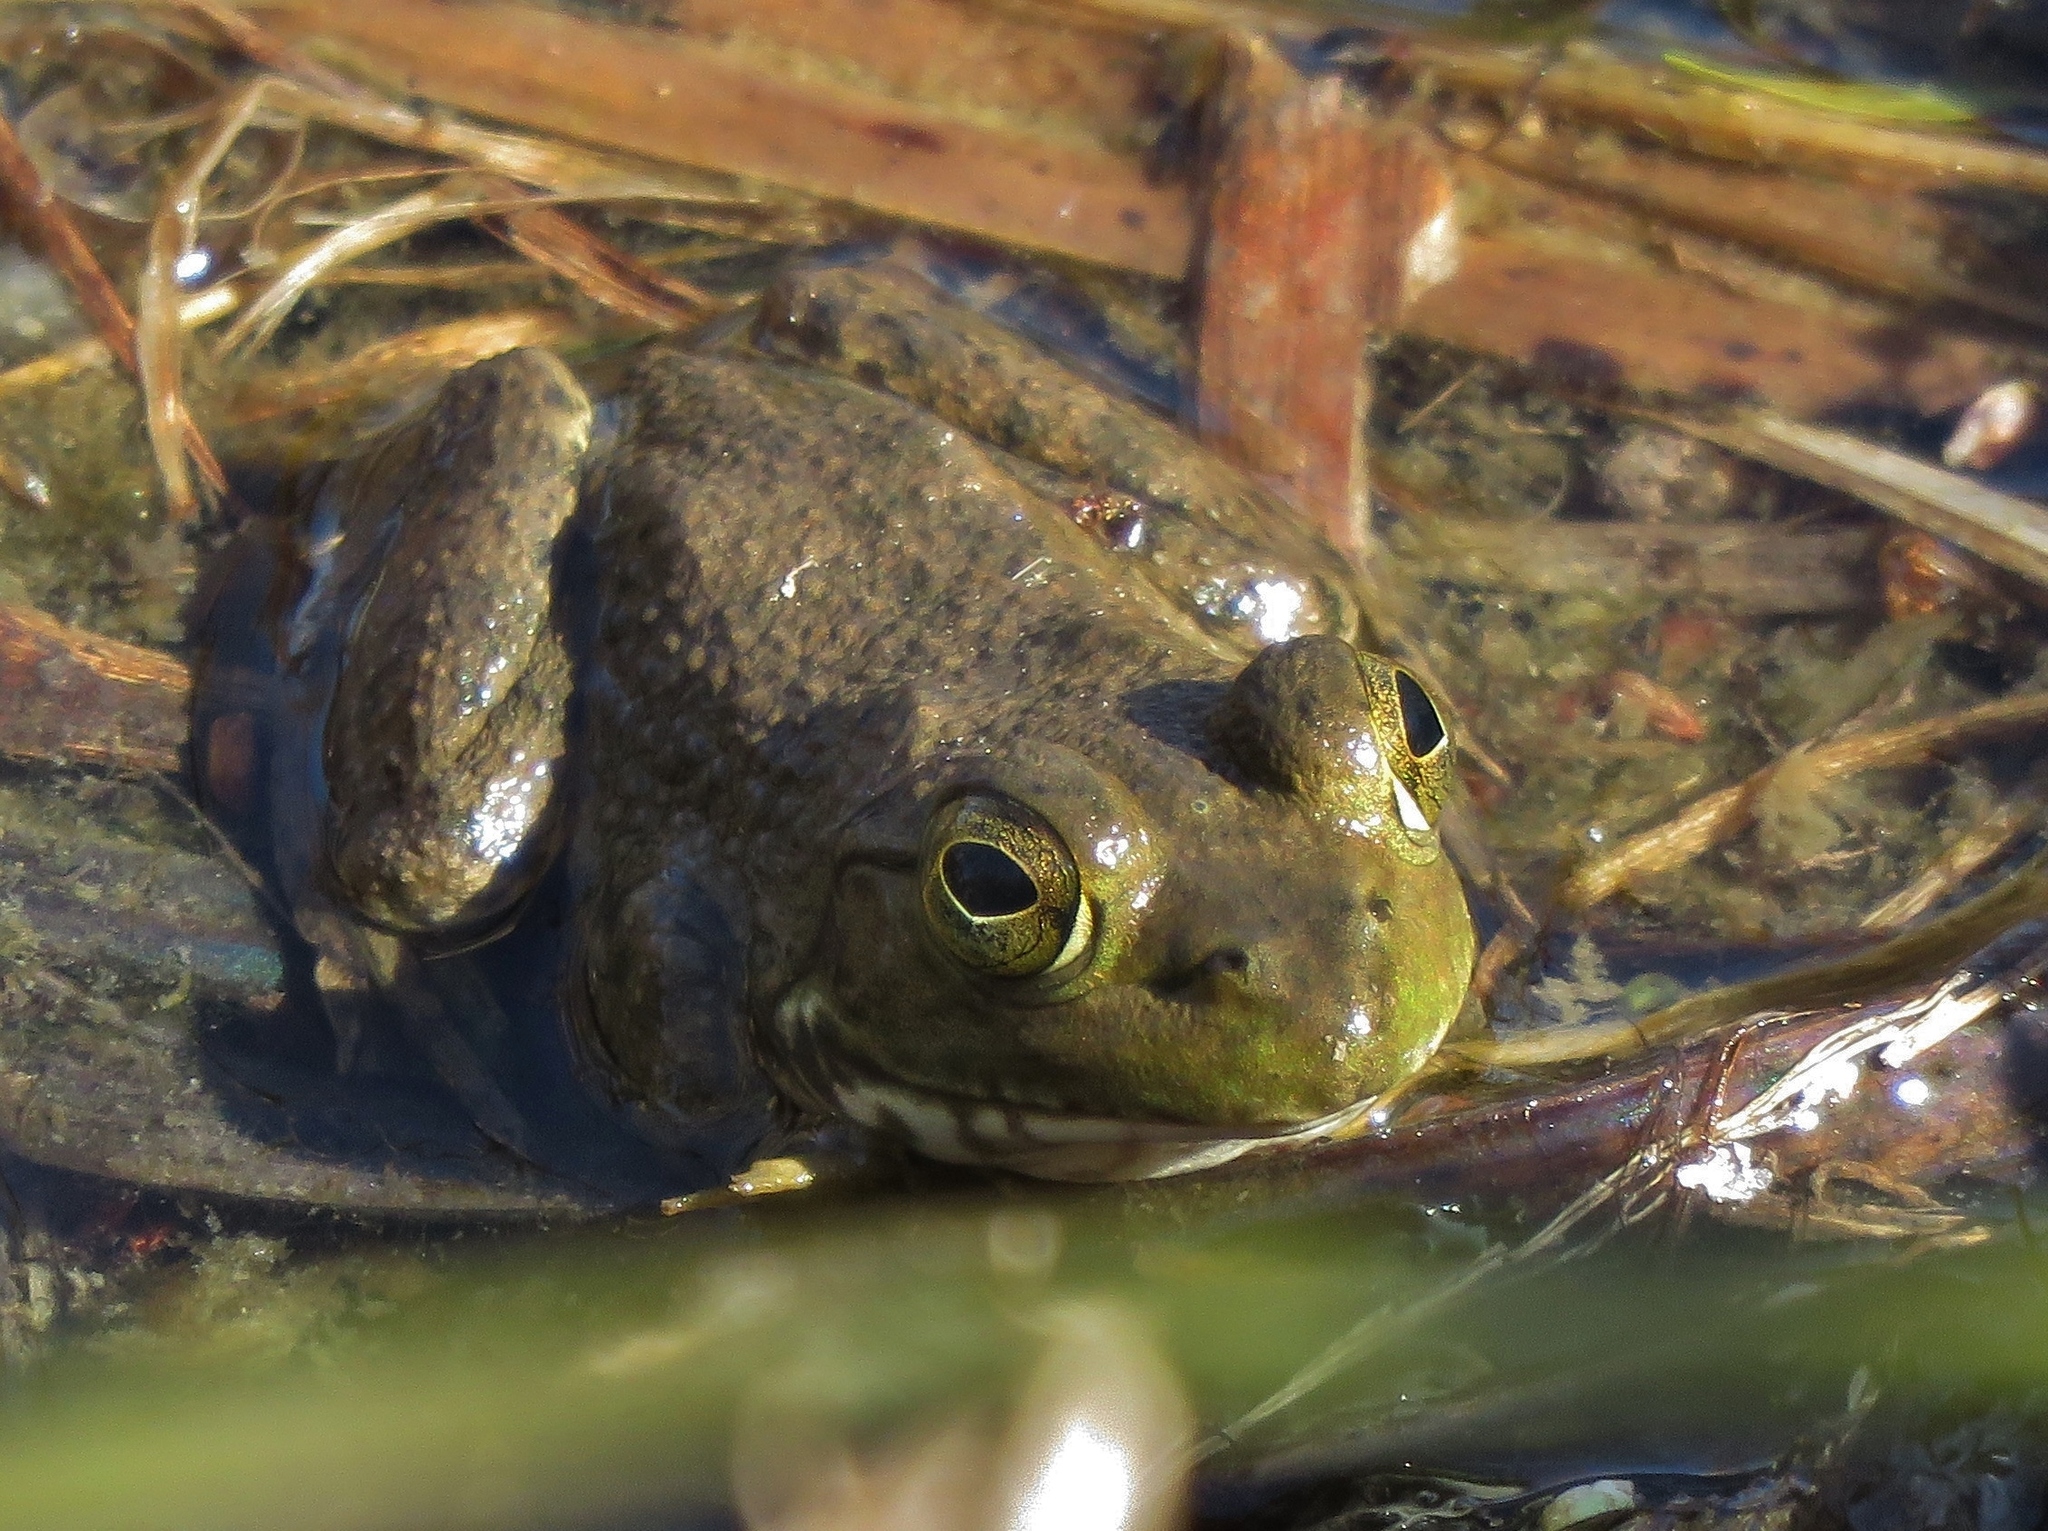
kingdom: Animalia
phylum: Chordata
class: Amphibia
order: Anura
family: Ranidae
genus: Lithobates
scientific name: Lithobates catesbeianus
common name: American bullfrog
